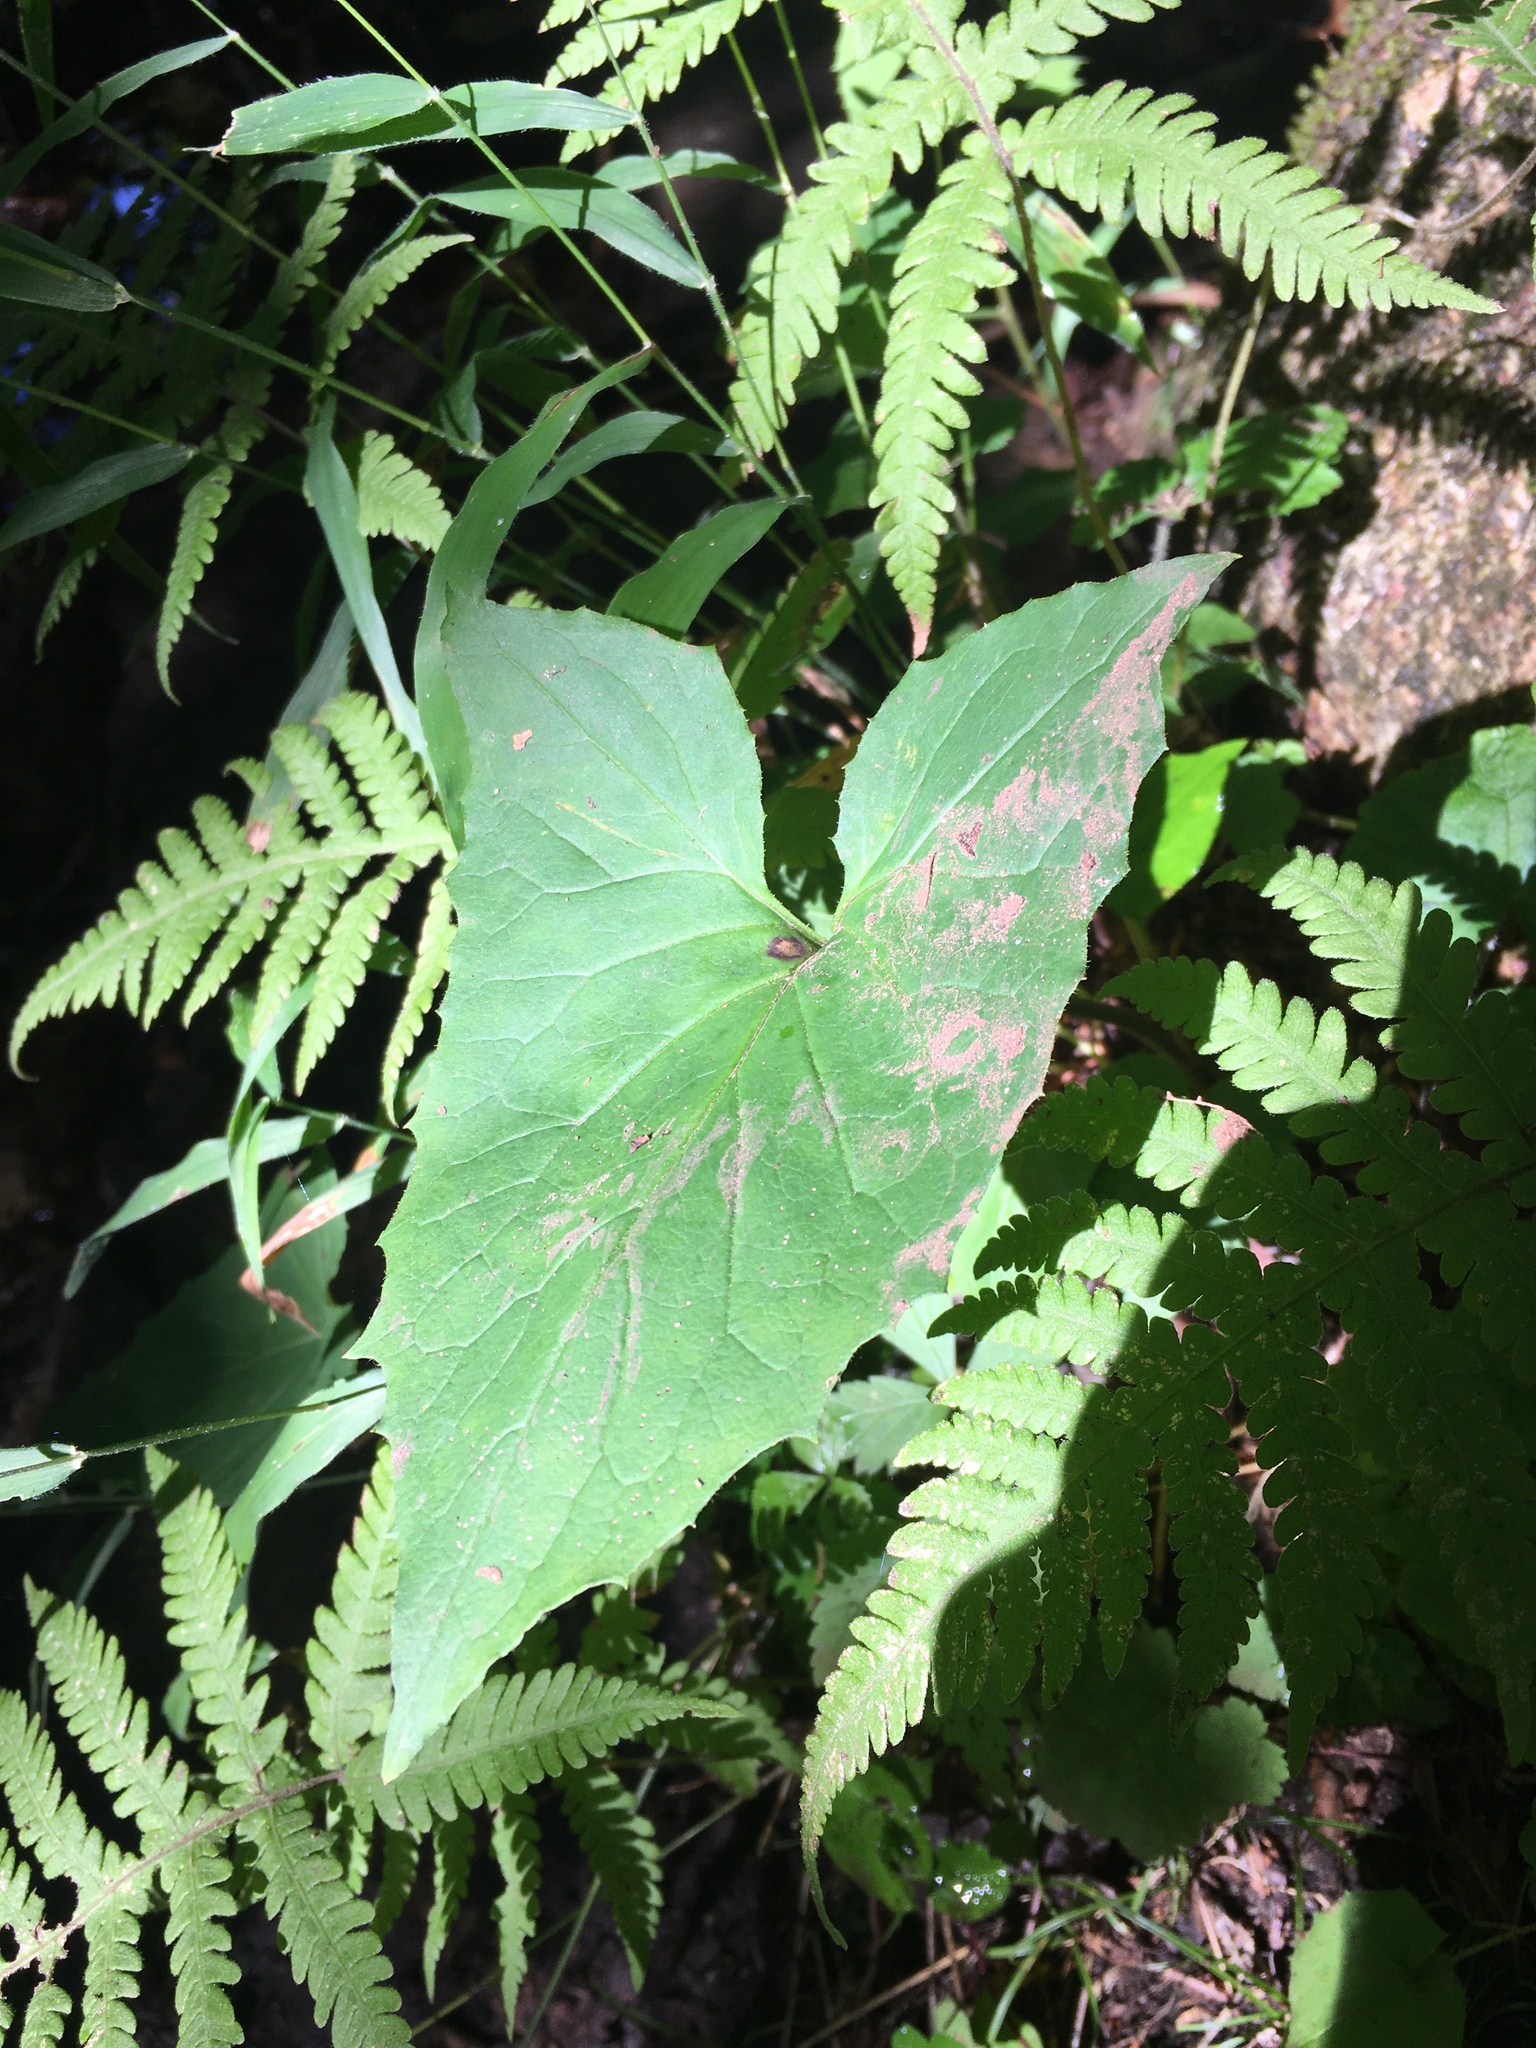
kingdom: Plantae
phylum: Tracheophyta
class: Magnoliopsida
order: Asterales
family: Asteraceae
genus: Nabalus
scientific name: Nabalus
